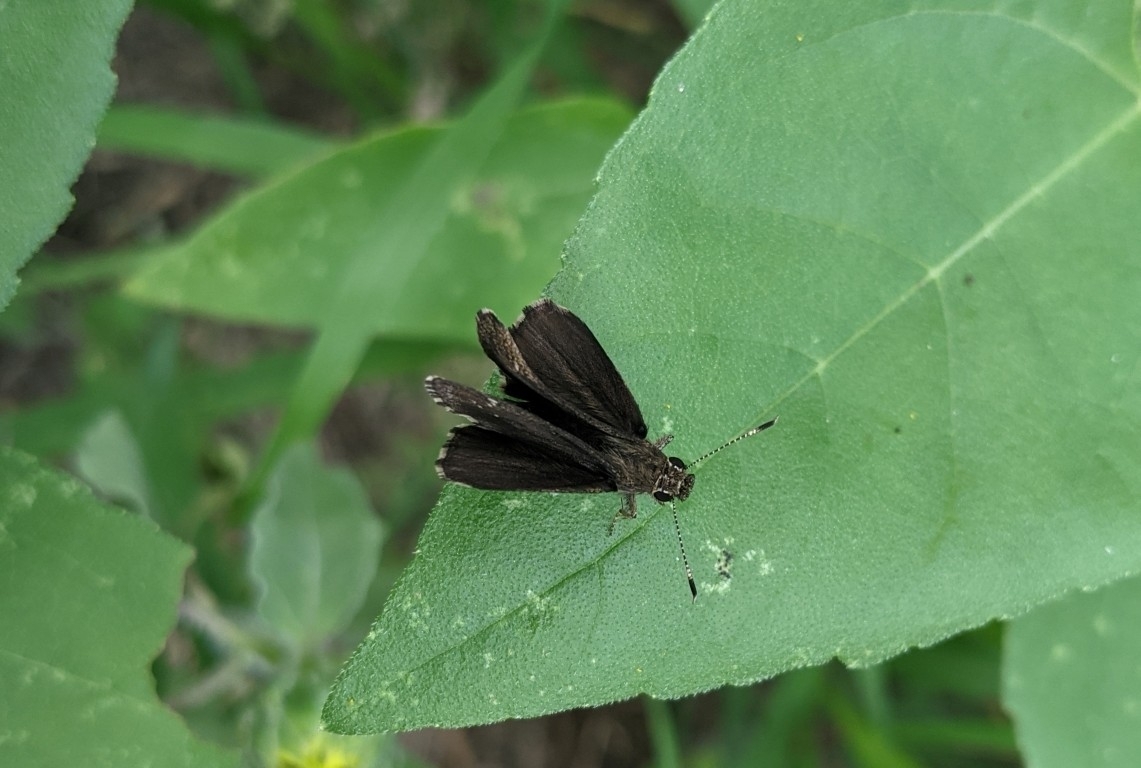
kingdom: Animalia
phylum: Arthropoda
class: Insecta
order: Lepidoptera
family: Hesperiidae
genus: Mastor
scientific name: Mastor celia
